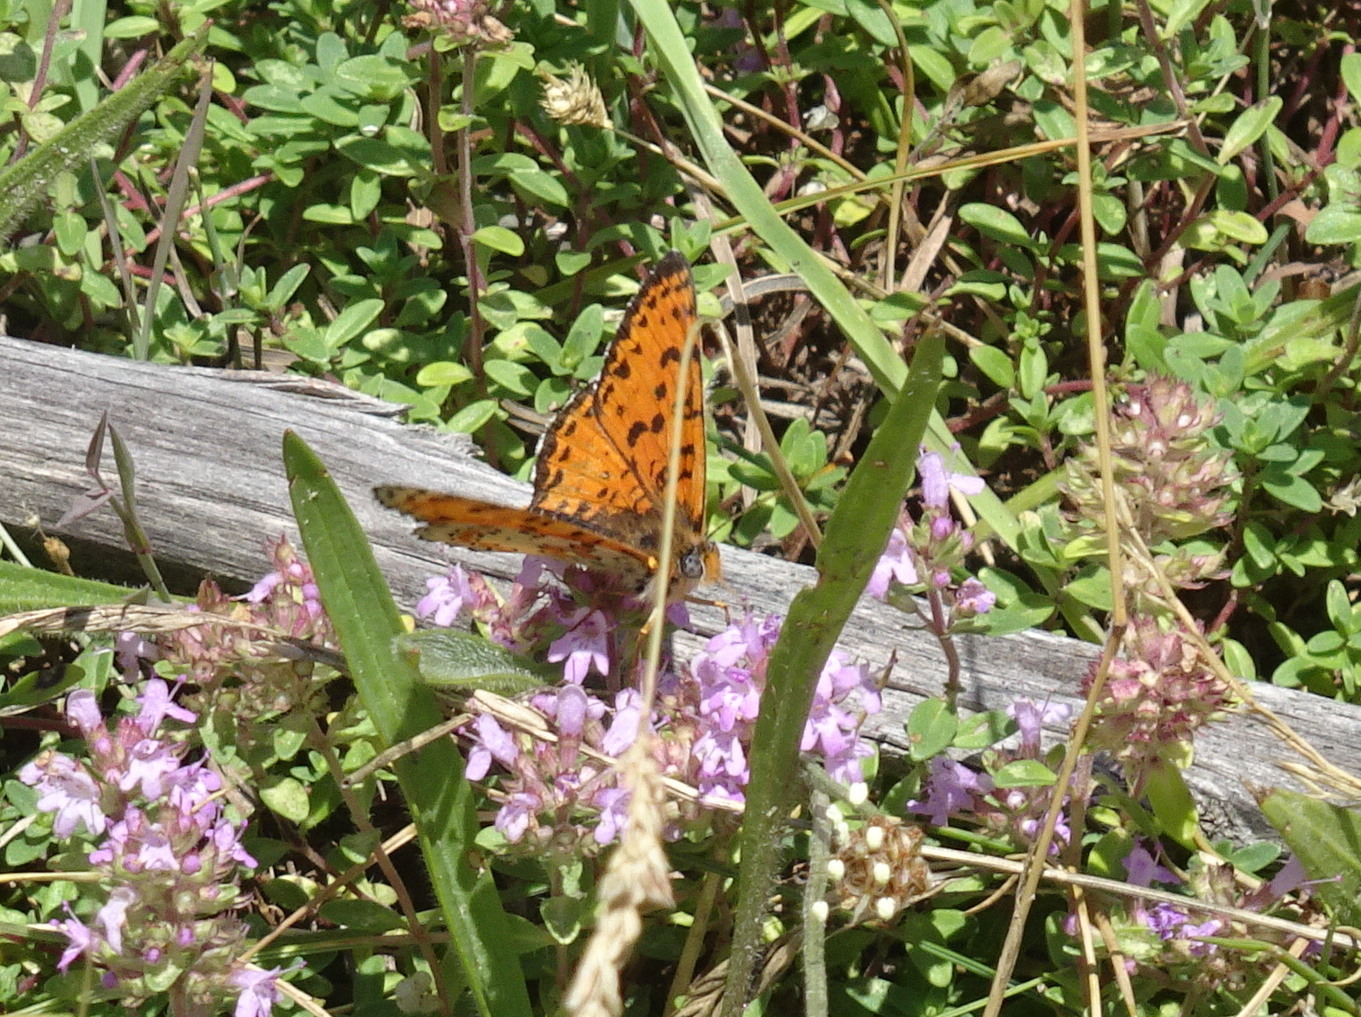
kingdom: Animalia
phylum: Arthropoda
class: Insecta
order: Lepidoptera
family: Nymphalidae
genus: Melitaea
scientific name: Melitaea didyma
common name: Spotted fritillary
